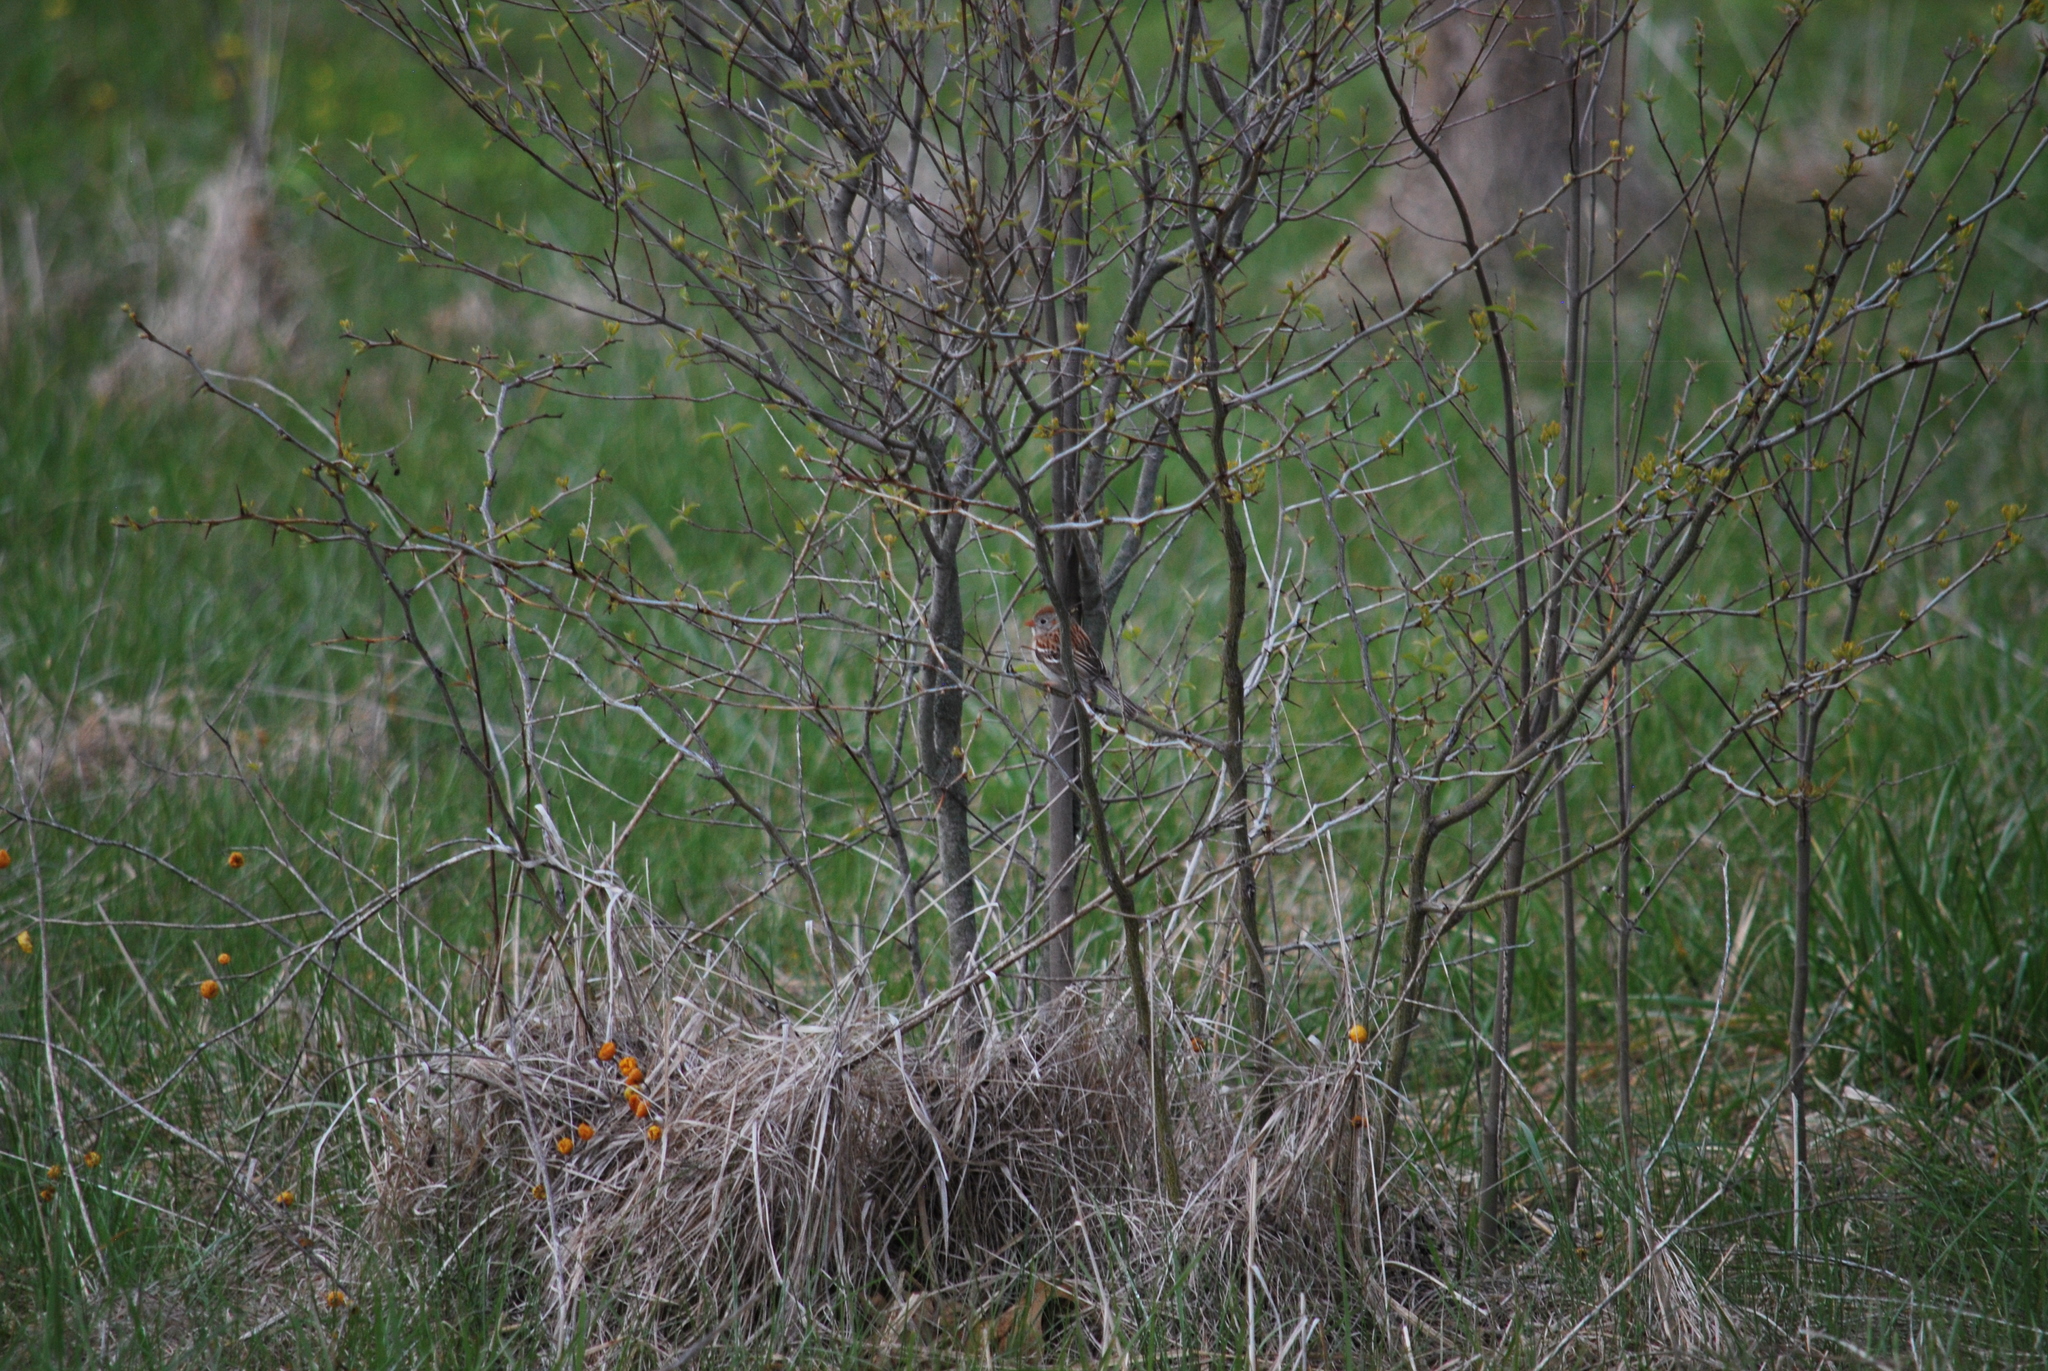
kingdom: Animalia
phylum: Chordata
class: Aves
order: Passeriformes
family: Passerellidae
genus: Spizella
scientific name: Spizella pusilla
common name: Field sparrow
